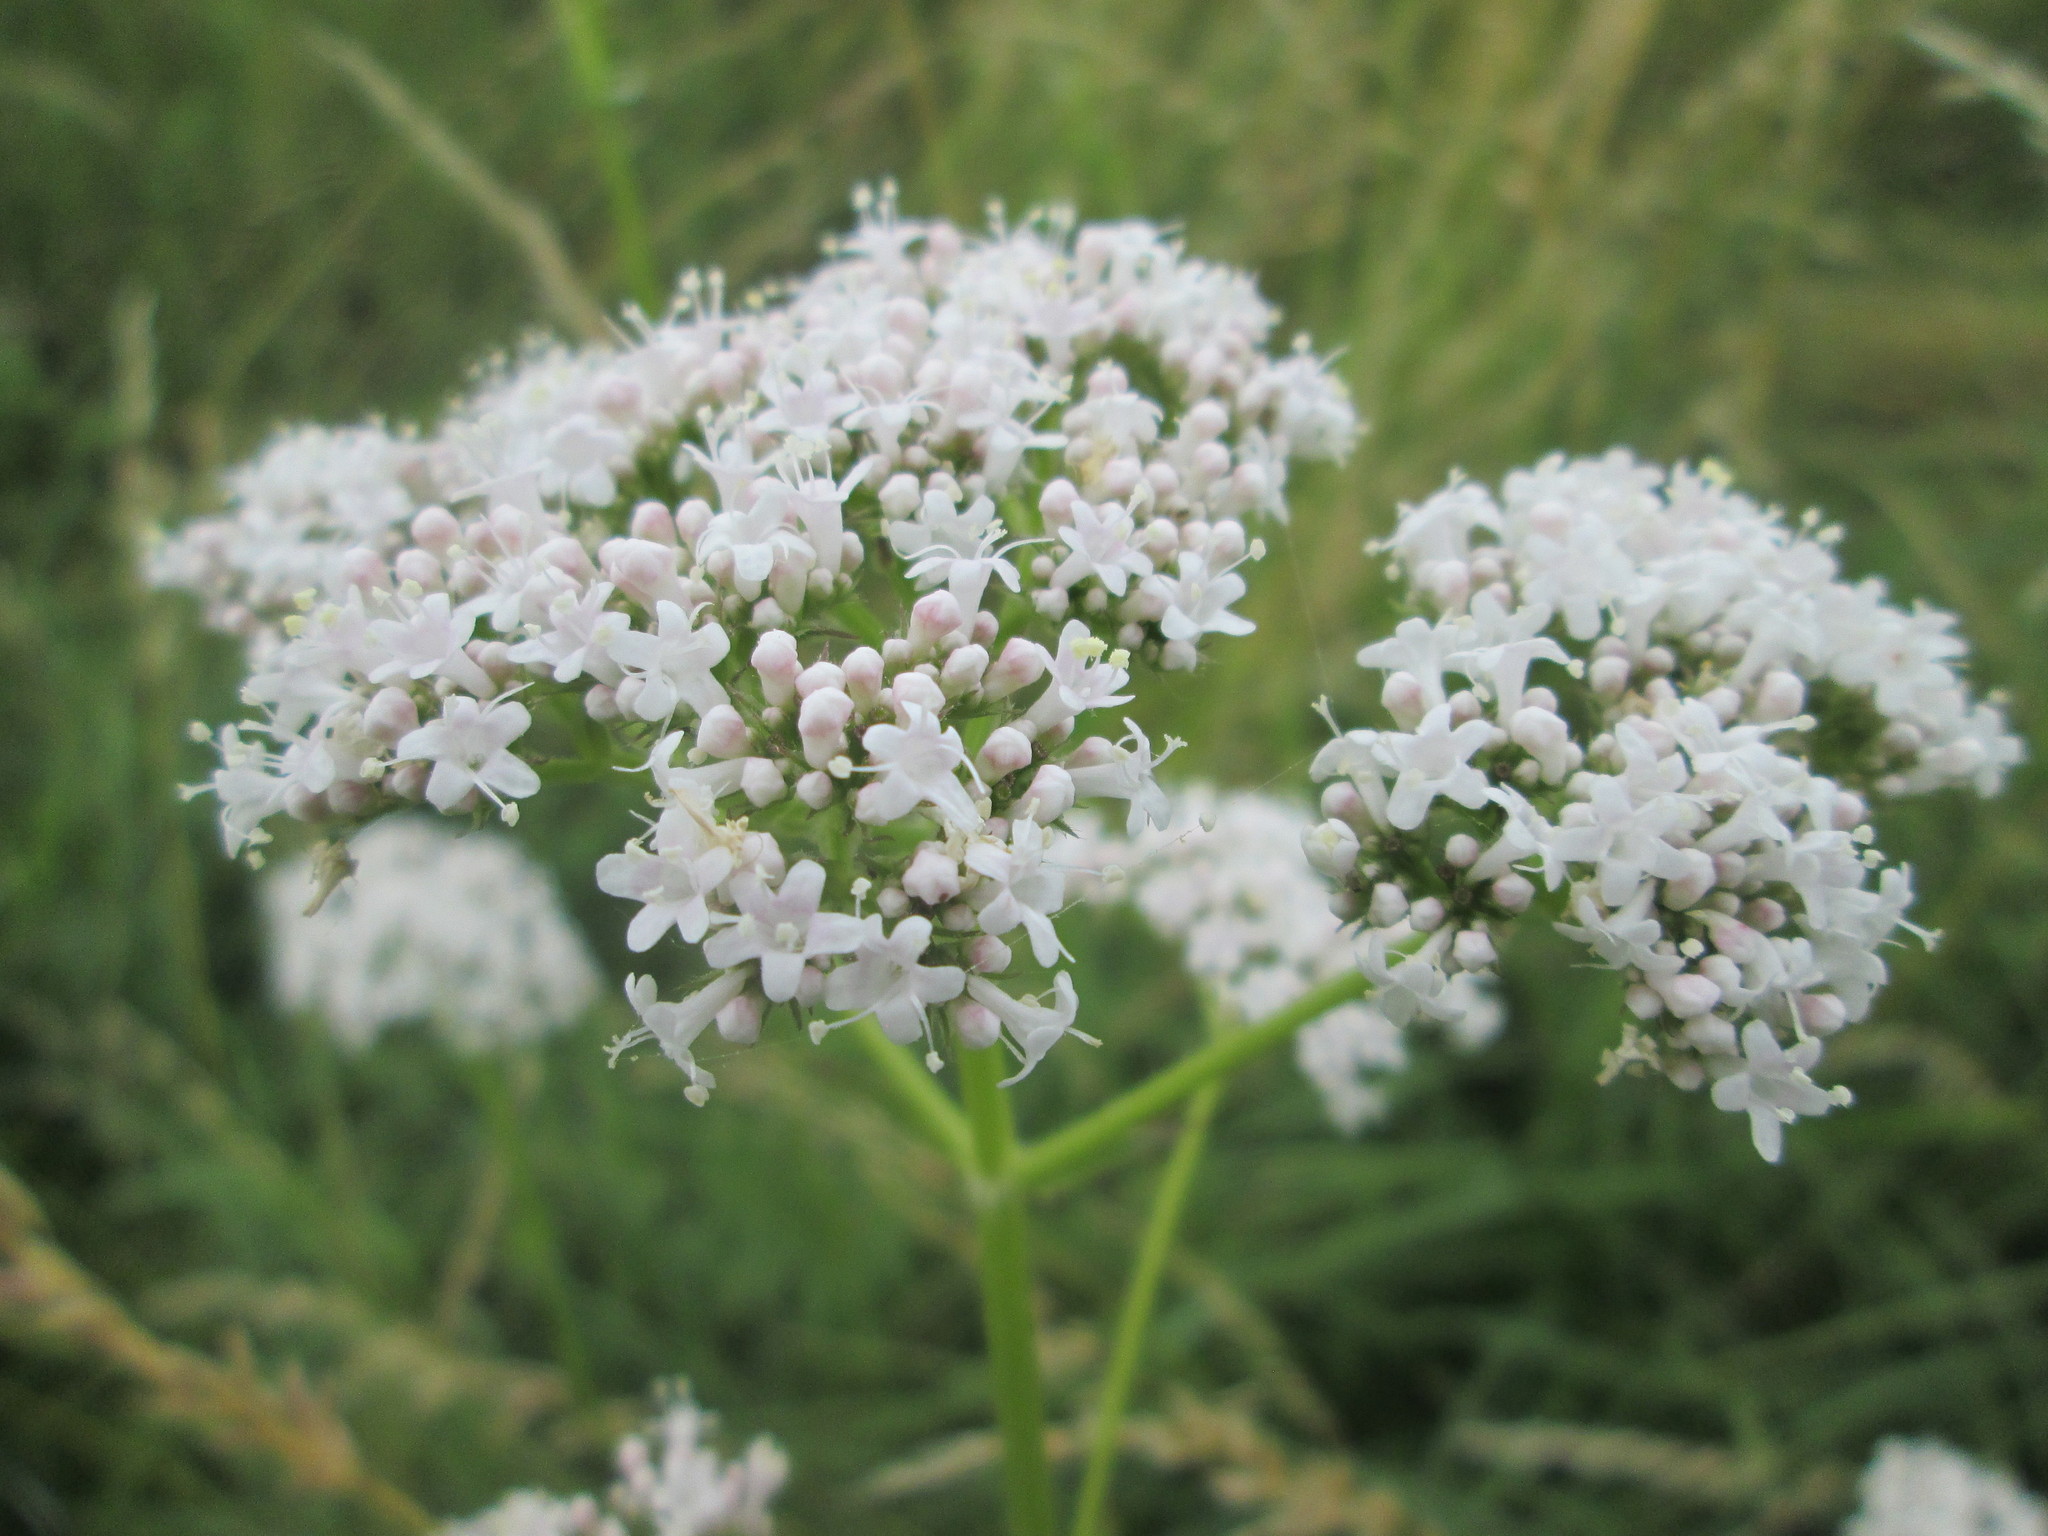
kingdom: Plantae
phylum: Tracheophyta
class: Magnoliopsida
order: Dipsacales
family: Caprifoliaceae
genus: Valeriana
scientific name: Valeriana officinalis
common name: Common valerian
